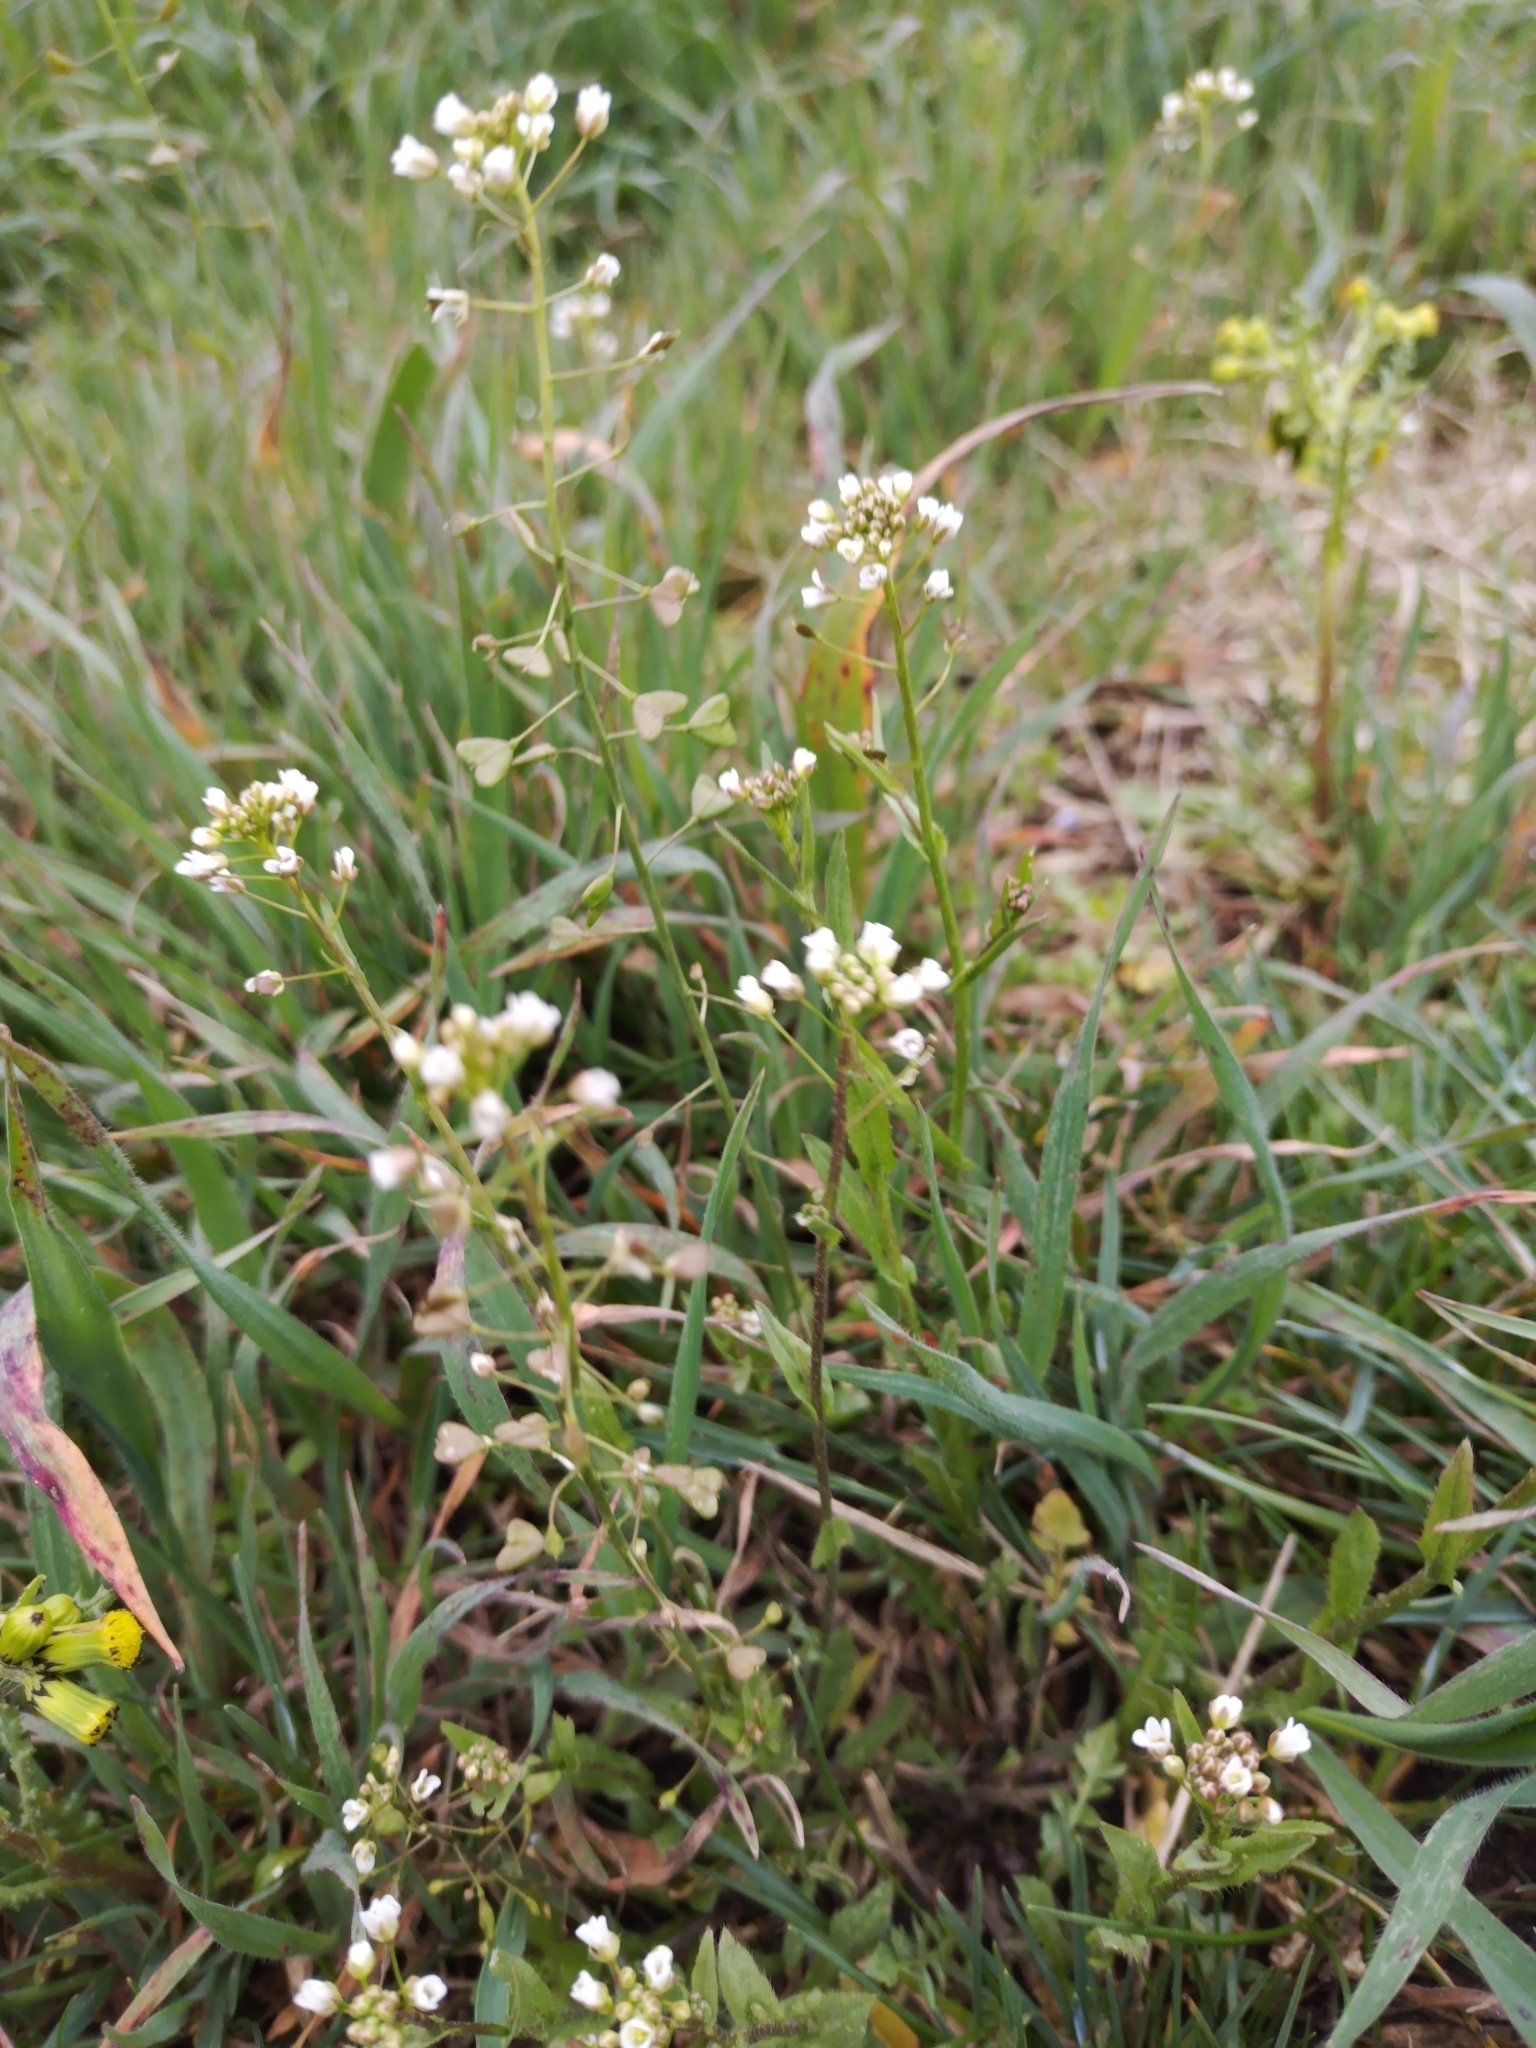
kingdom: Plantae
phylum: Tracheophyta
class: Magnoliopsida
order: Brassicales
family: Brassicaceae
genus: Capsella
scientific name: Capsella bursa-pastoris
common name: Shepherd's purse
